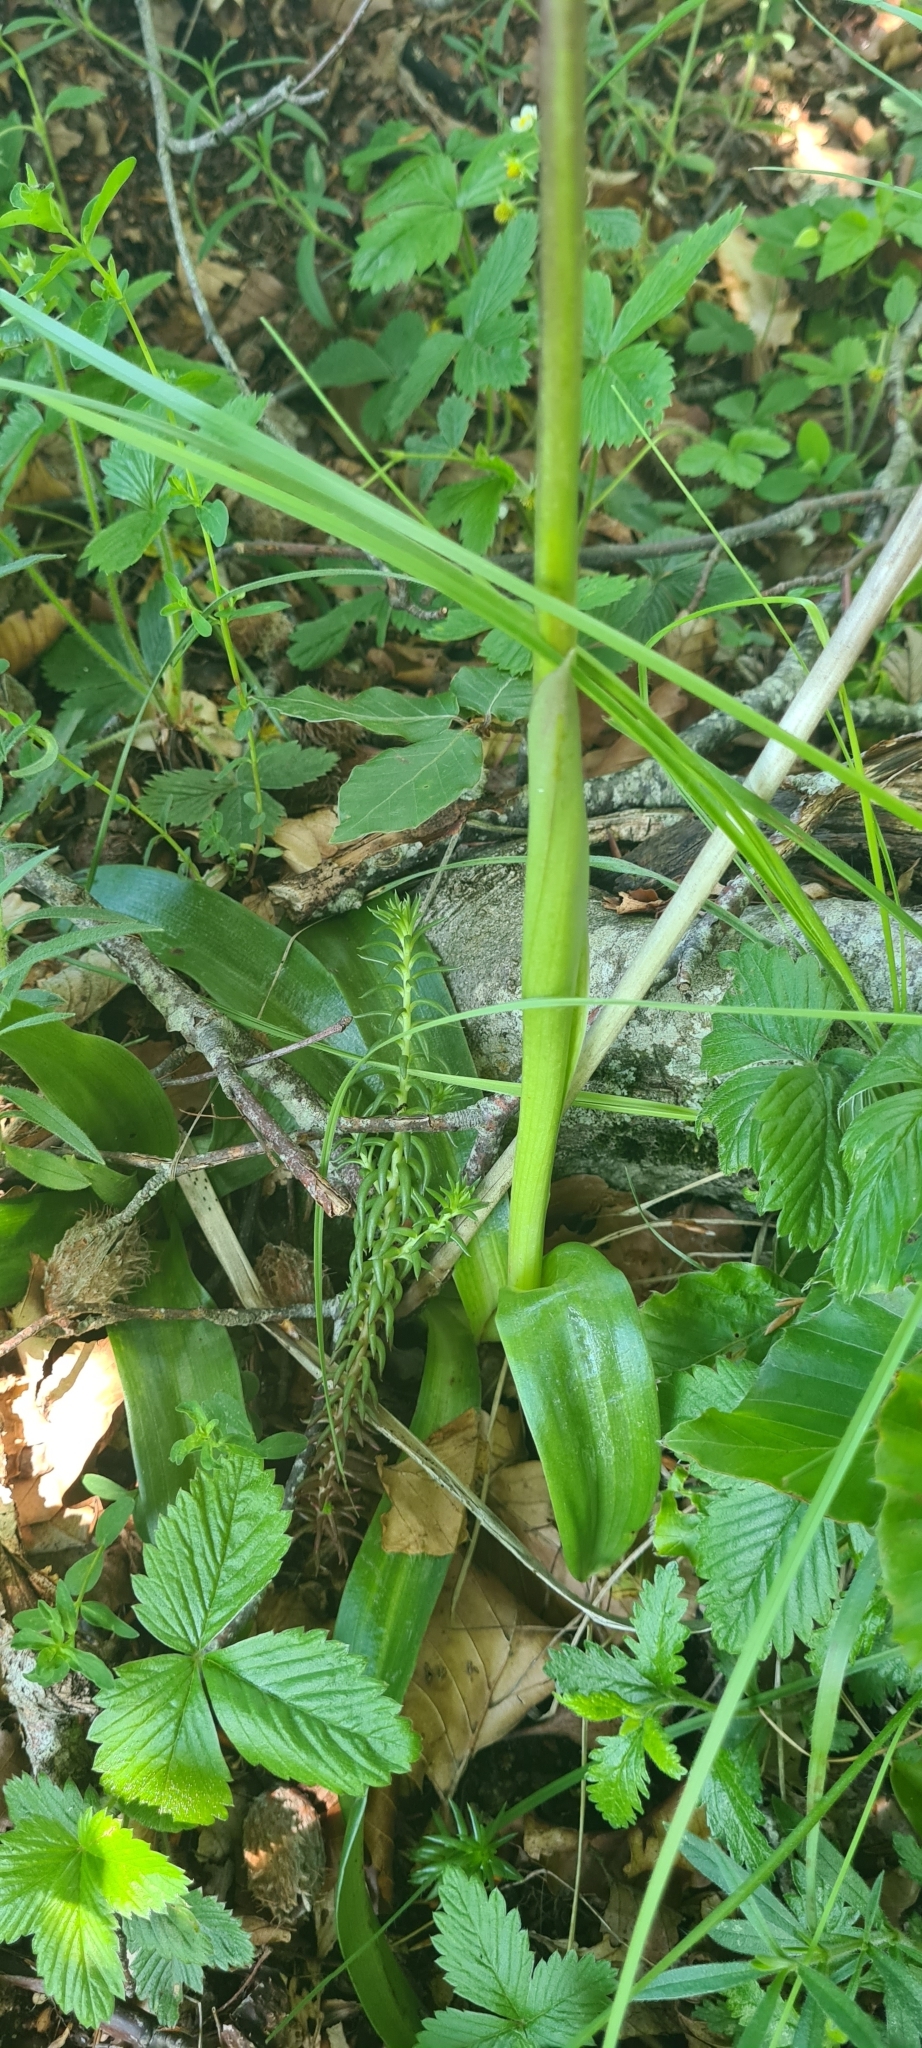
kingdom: Plantae
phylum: Tracheophyta
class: Liliopsida
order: Asparagales
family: Orchidaceae
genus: Orchis
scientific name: Orchis mascula
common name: Early-purple orchid
